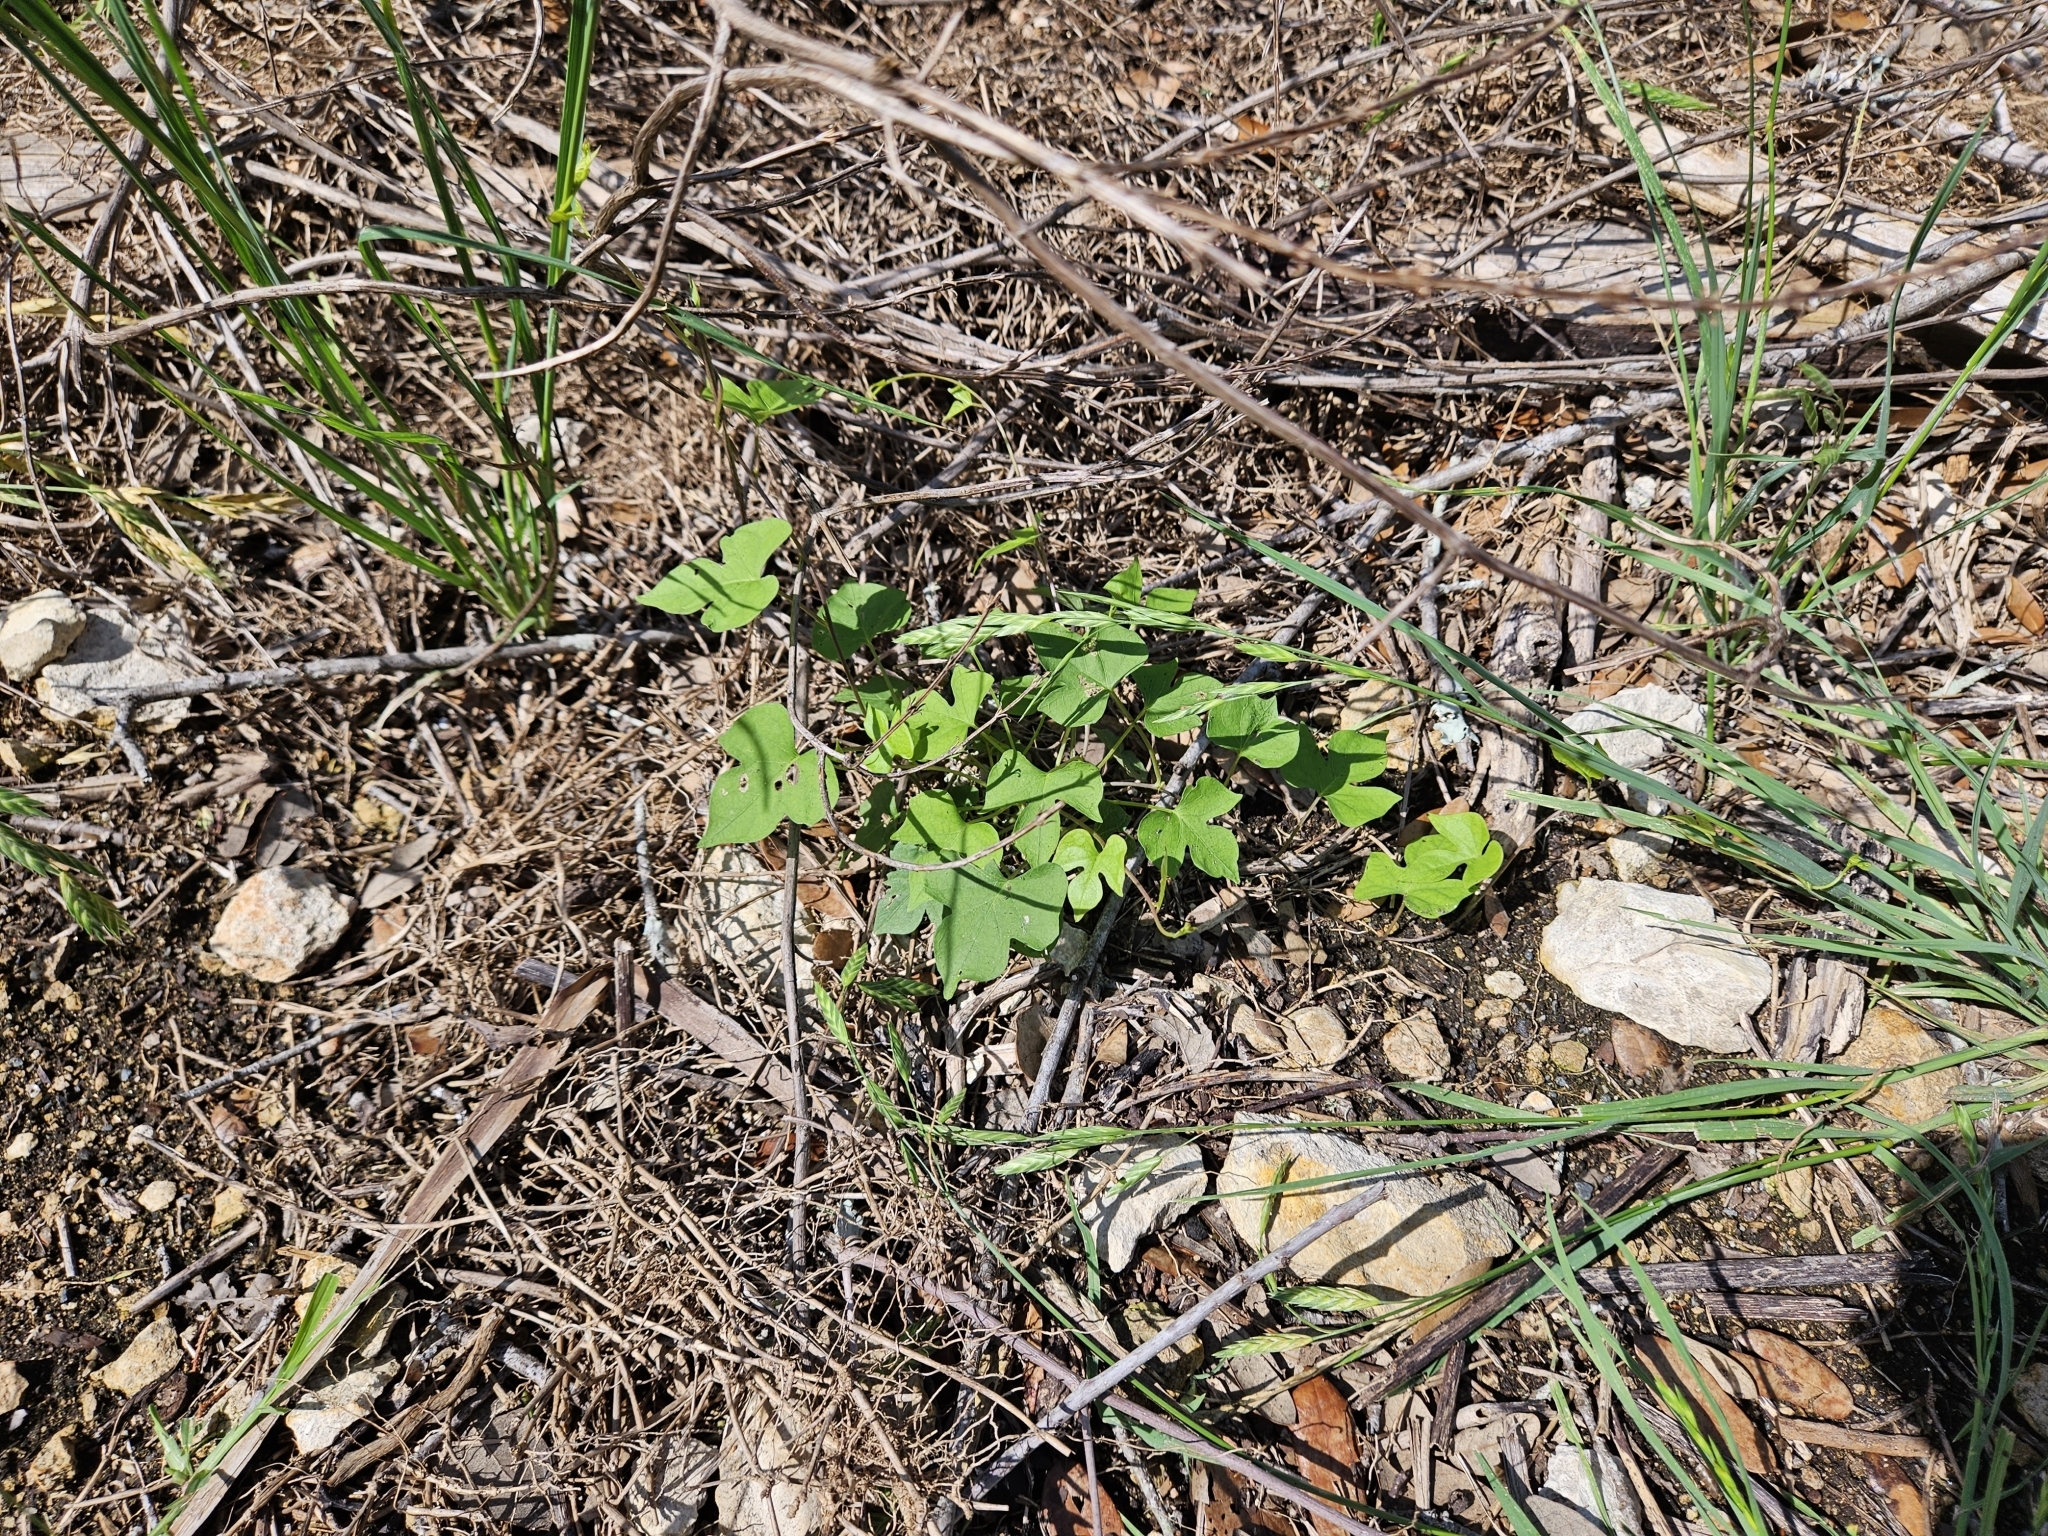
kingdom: Plantae
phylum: Tracheophyta
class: Magnoliopsida
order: Solanales
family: Convolvulaceae
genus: Ipomoea
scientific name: Ipomoea cordatotriloba
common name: Cotton morning glory
